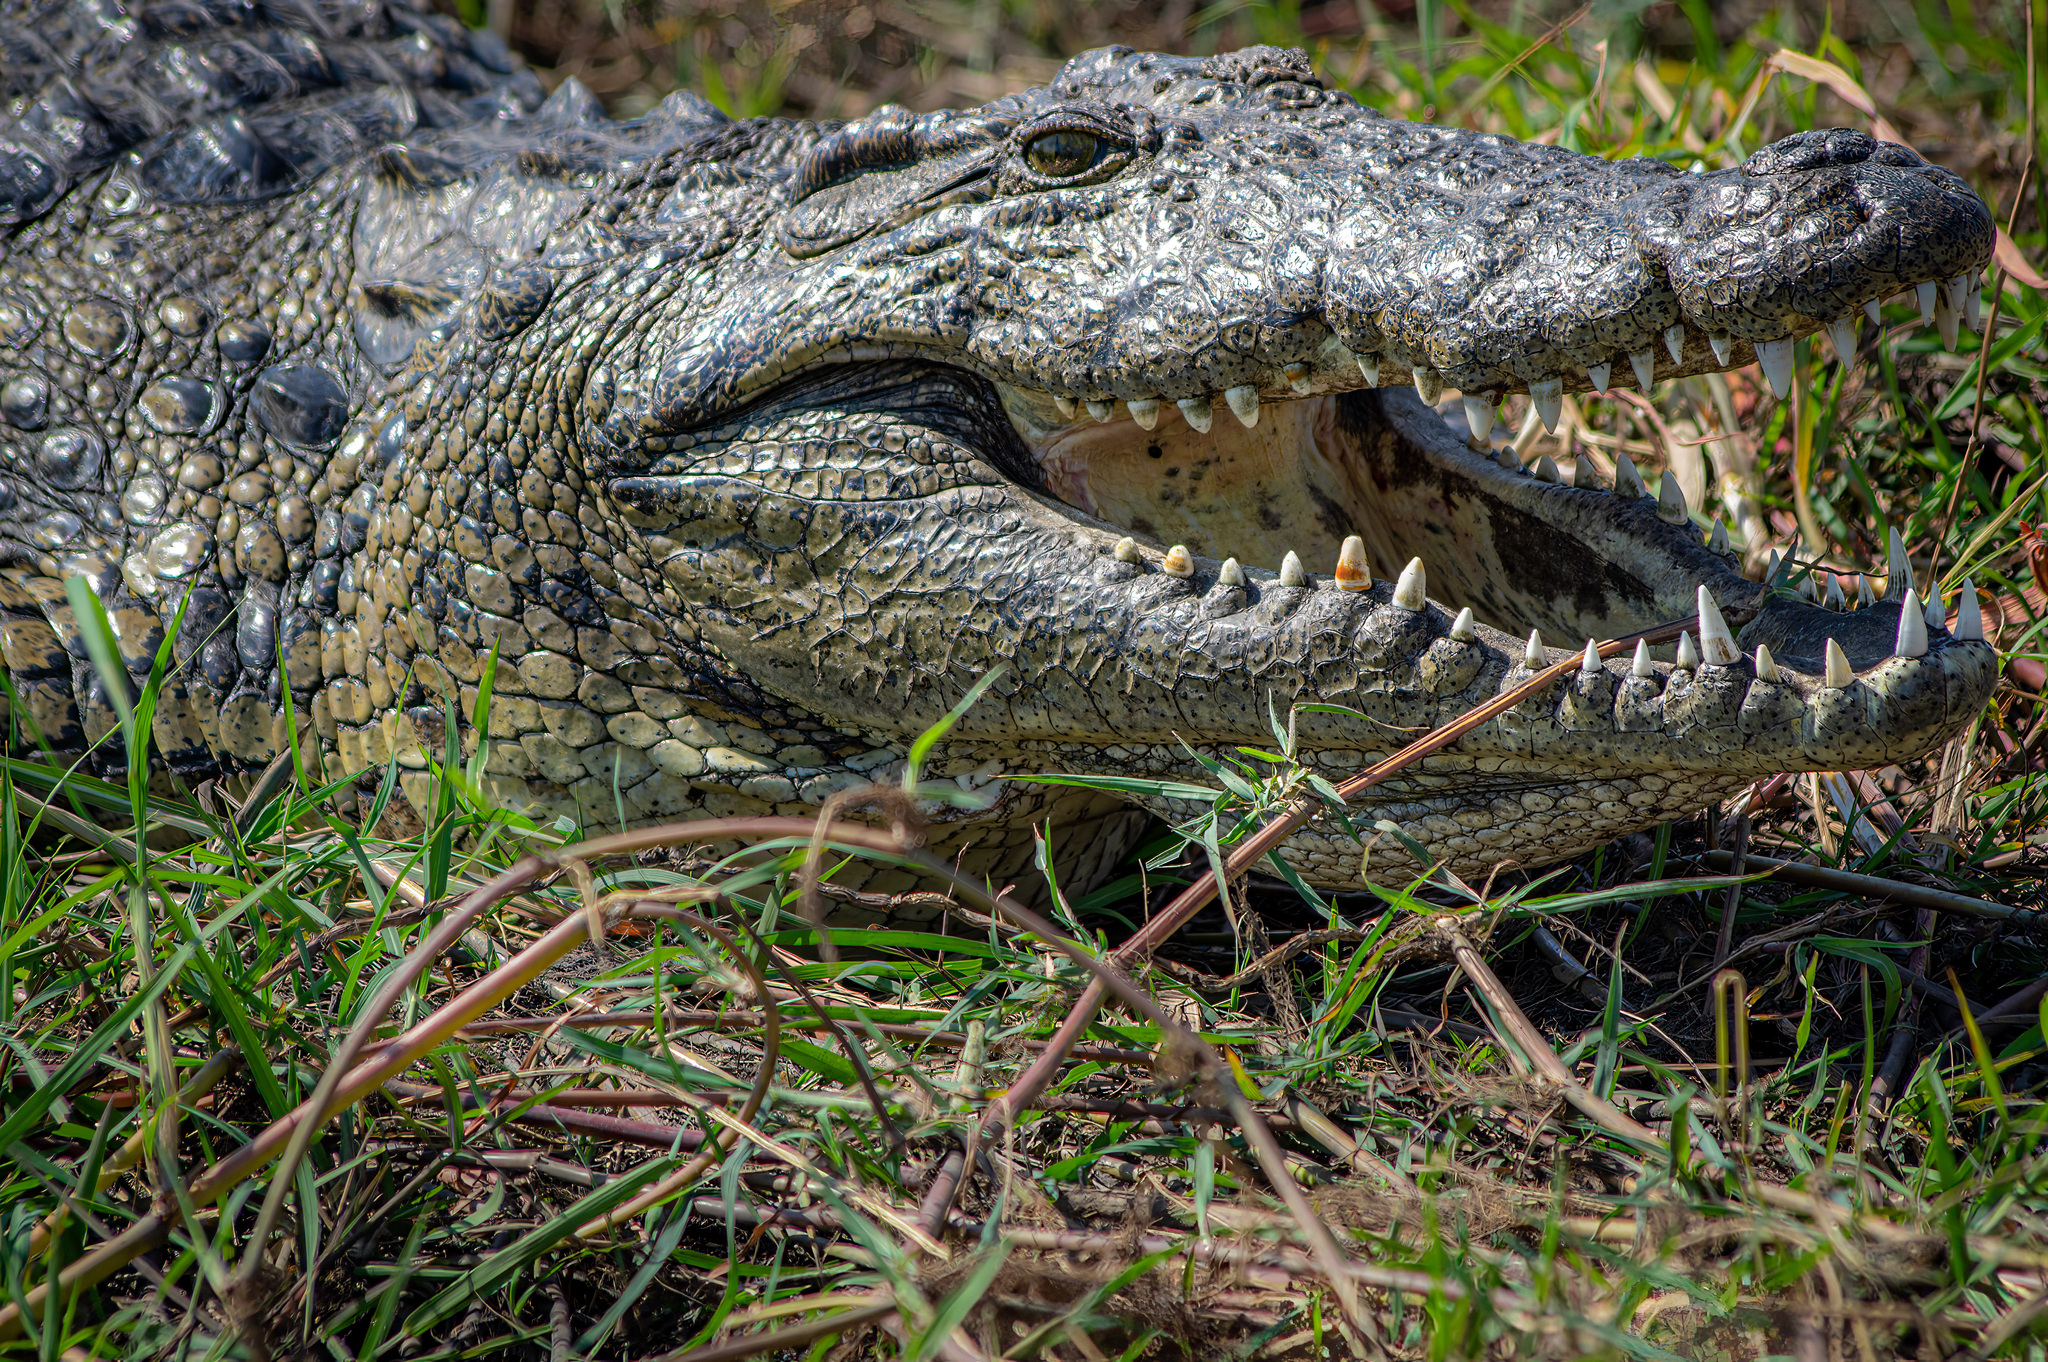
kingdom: Animalia
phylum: Chordata
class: Crocodylia
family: Crocodylidae
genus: Crocodylus
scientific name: Crocodylus niloticus
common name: Nile crocodile
